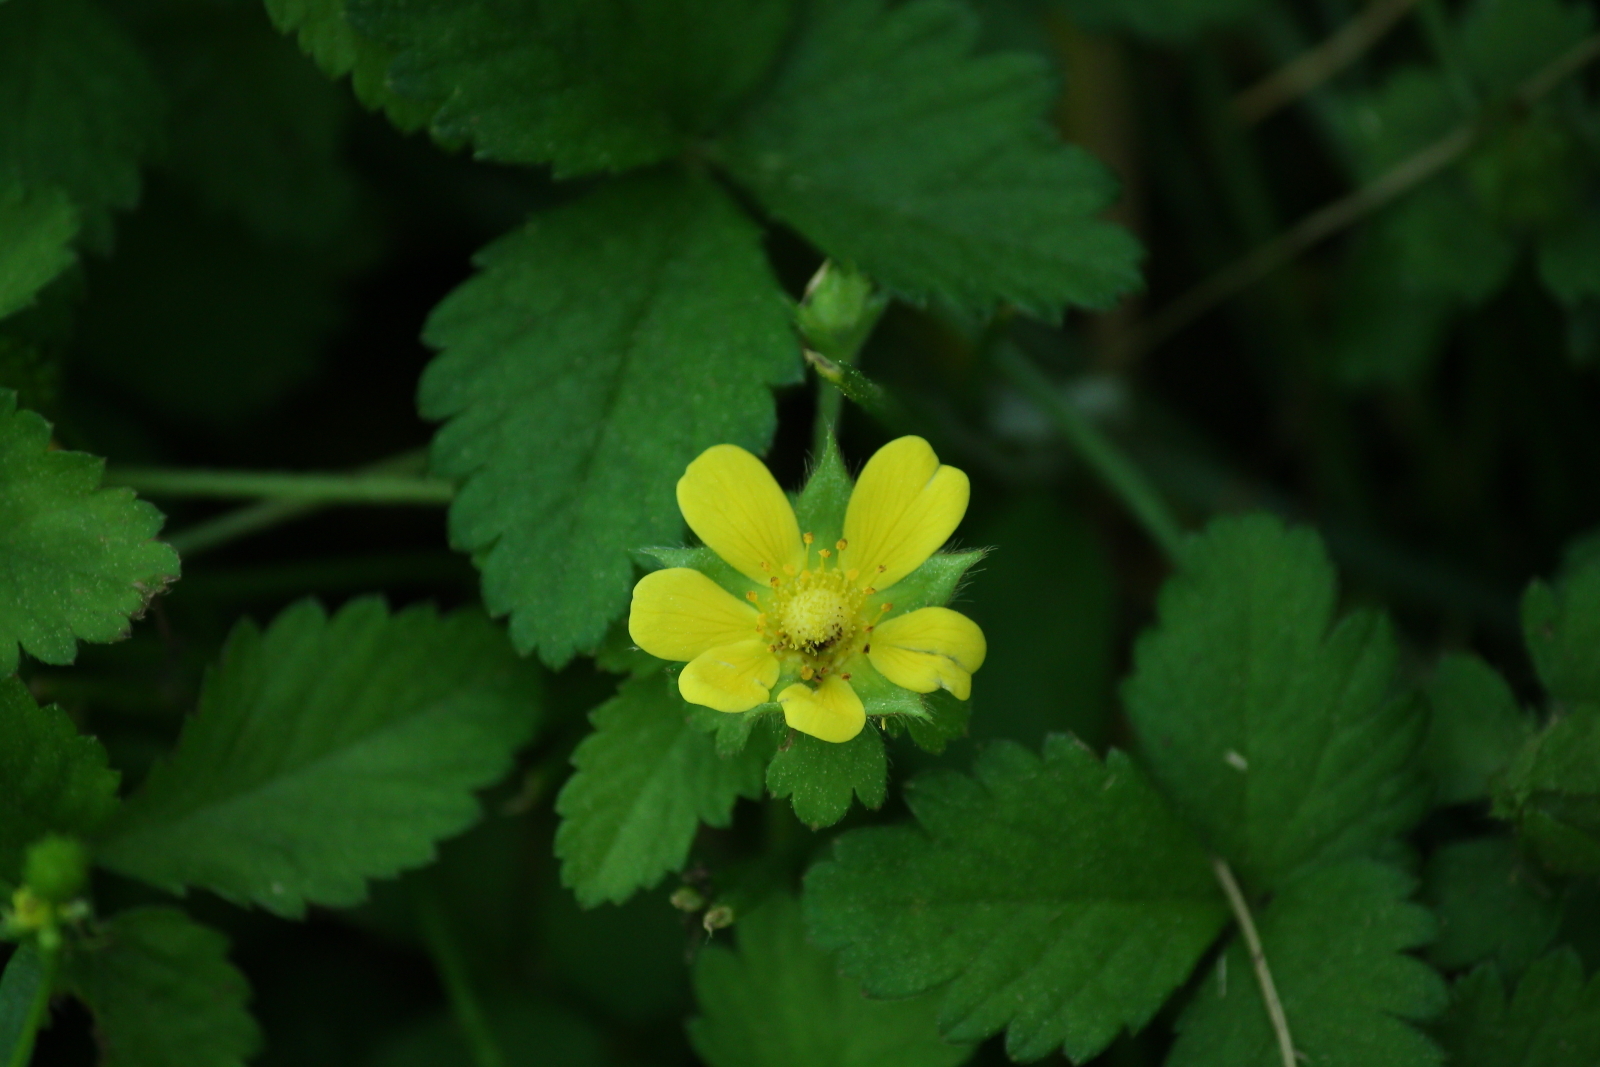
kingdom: Plantae
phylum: Tracheophyta
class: Magnoliopsida
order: Rosales
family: Rosaceae
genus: Potentilla
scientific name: Potentilla indica
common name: Yellow-flowered strawberry
